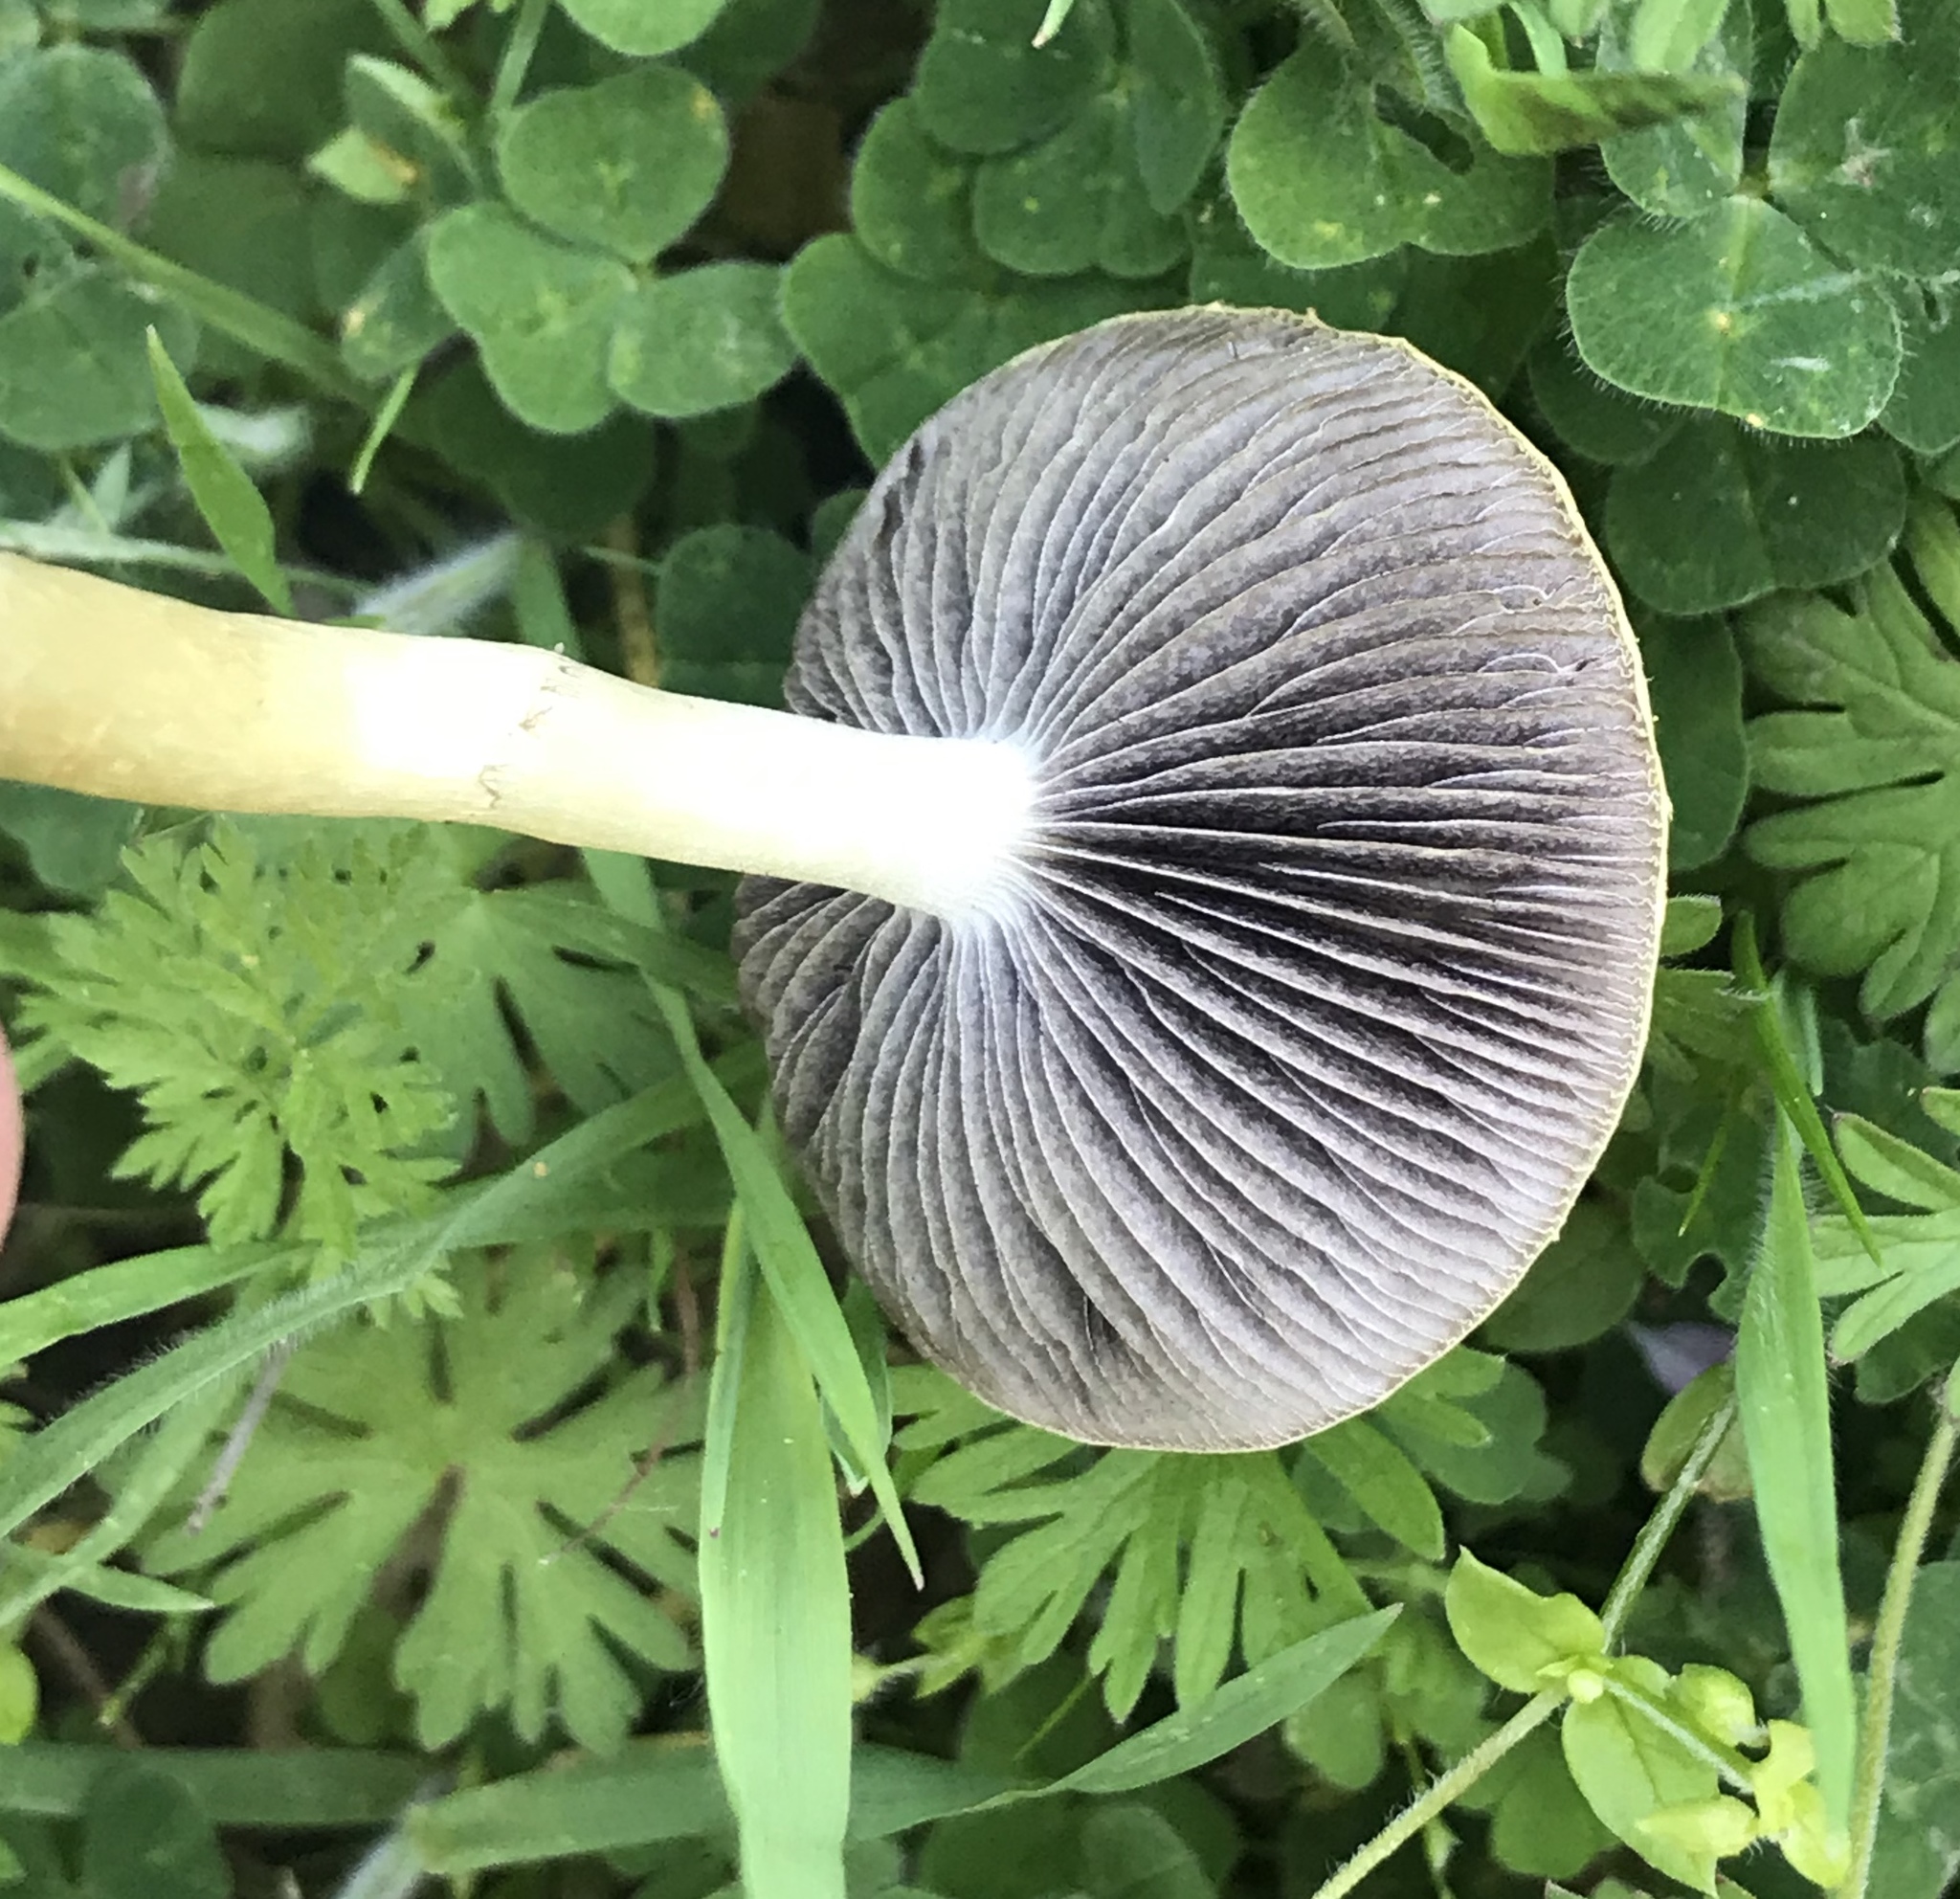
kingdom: Fungi
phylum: Basidiomycota
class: Agaricomycetes
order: Agaricales
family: Strophariaceae
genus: Leratiomyces
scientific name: Leratiomyces percevalii
